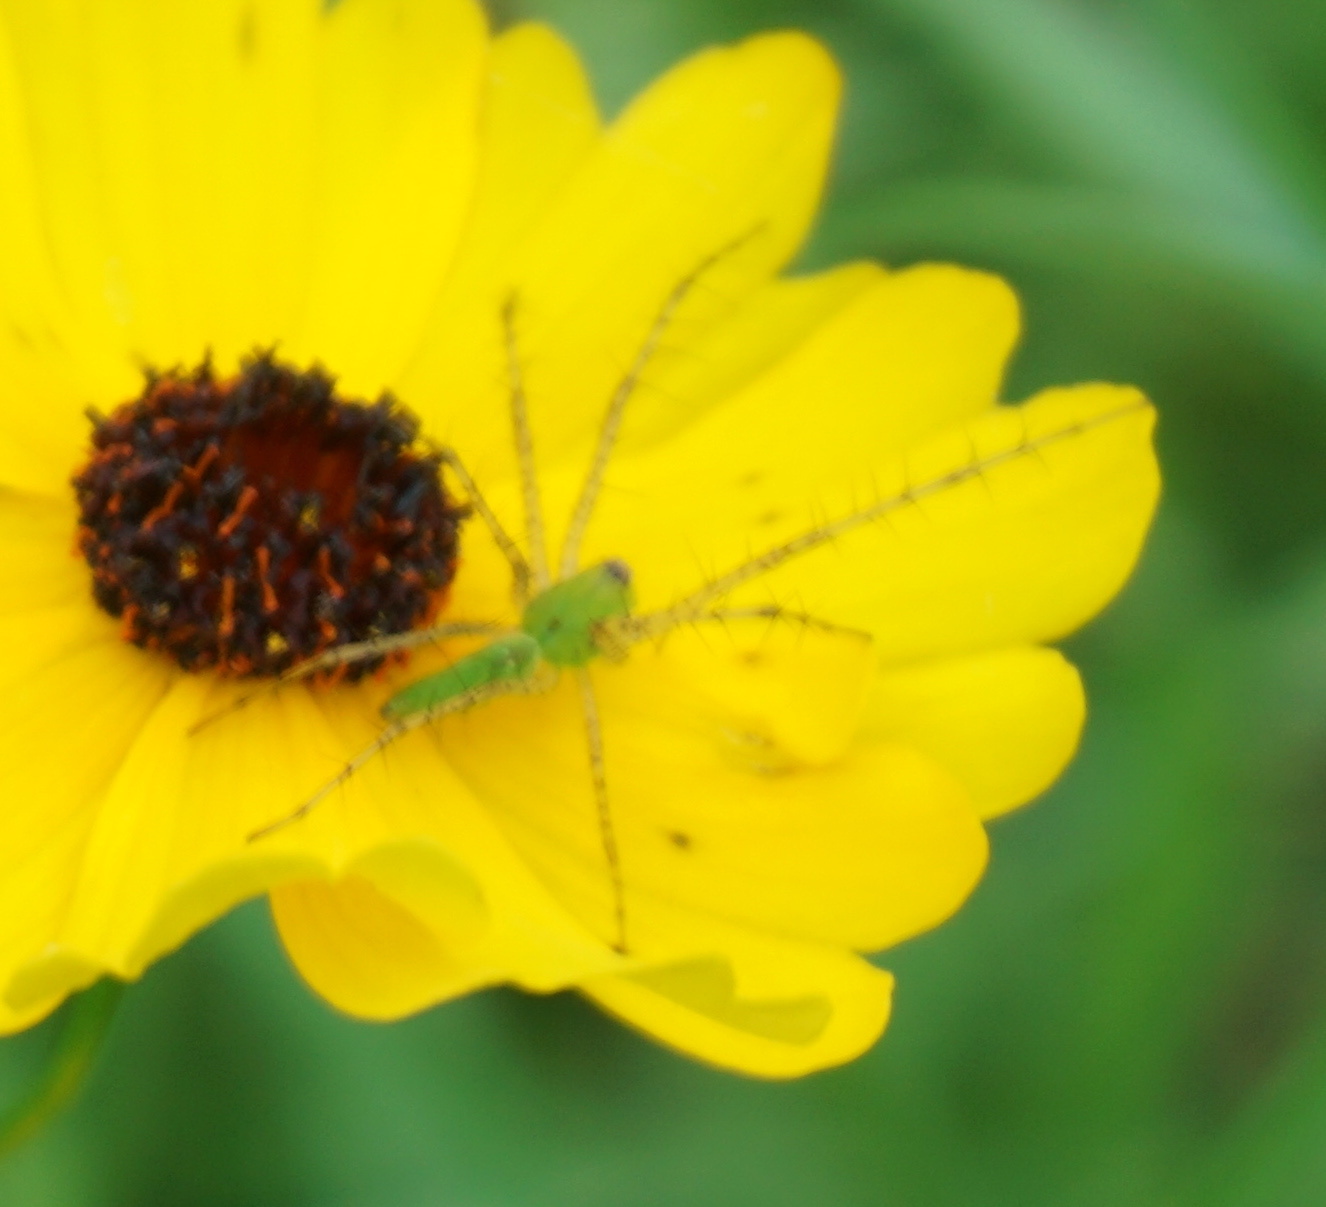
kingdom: Animalia
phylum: Arthropoda
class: Arachnida
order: Araneae
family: Oxyopidae
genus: Peucetia
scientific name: Peucetia viridans
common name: Lynx spiders
